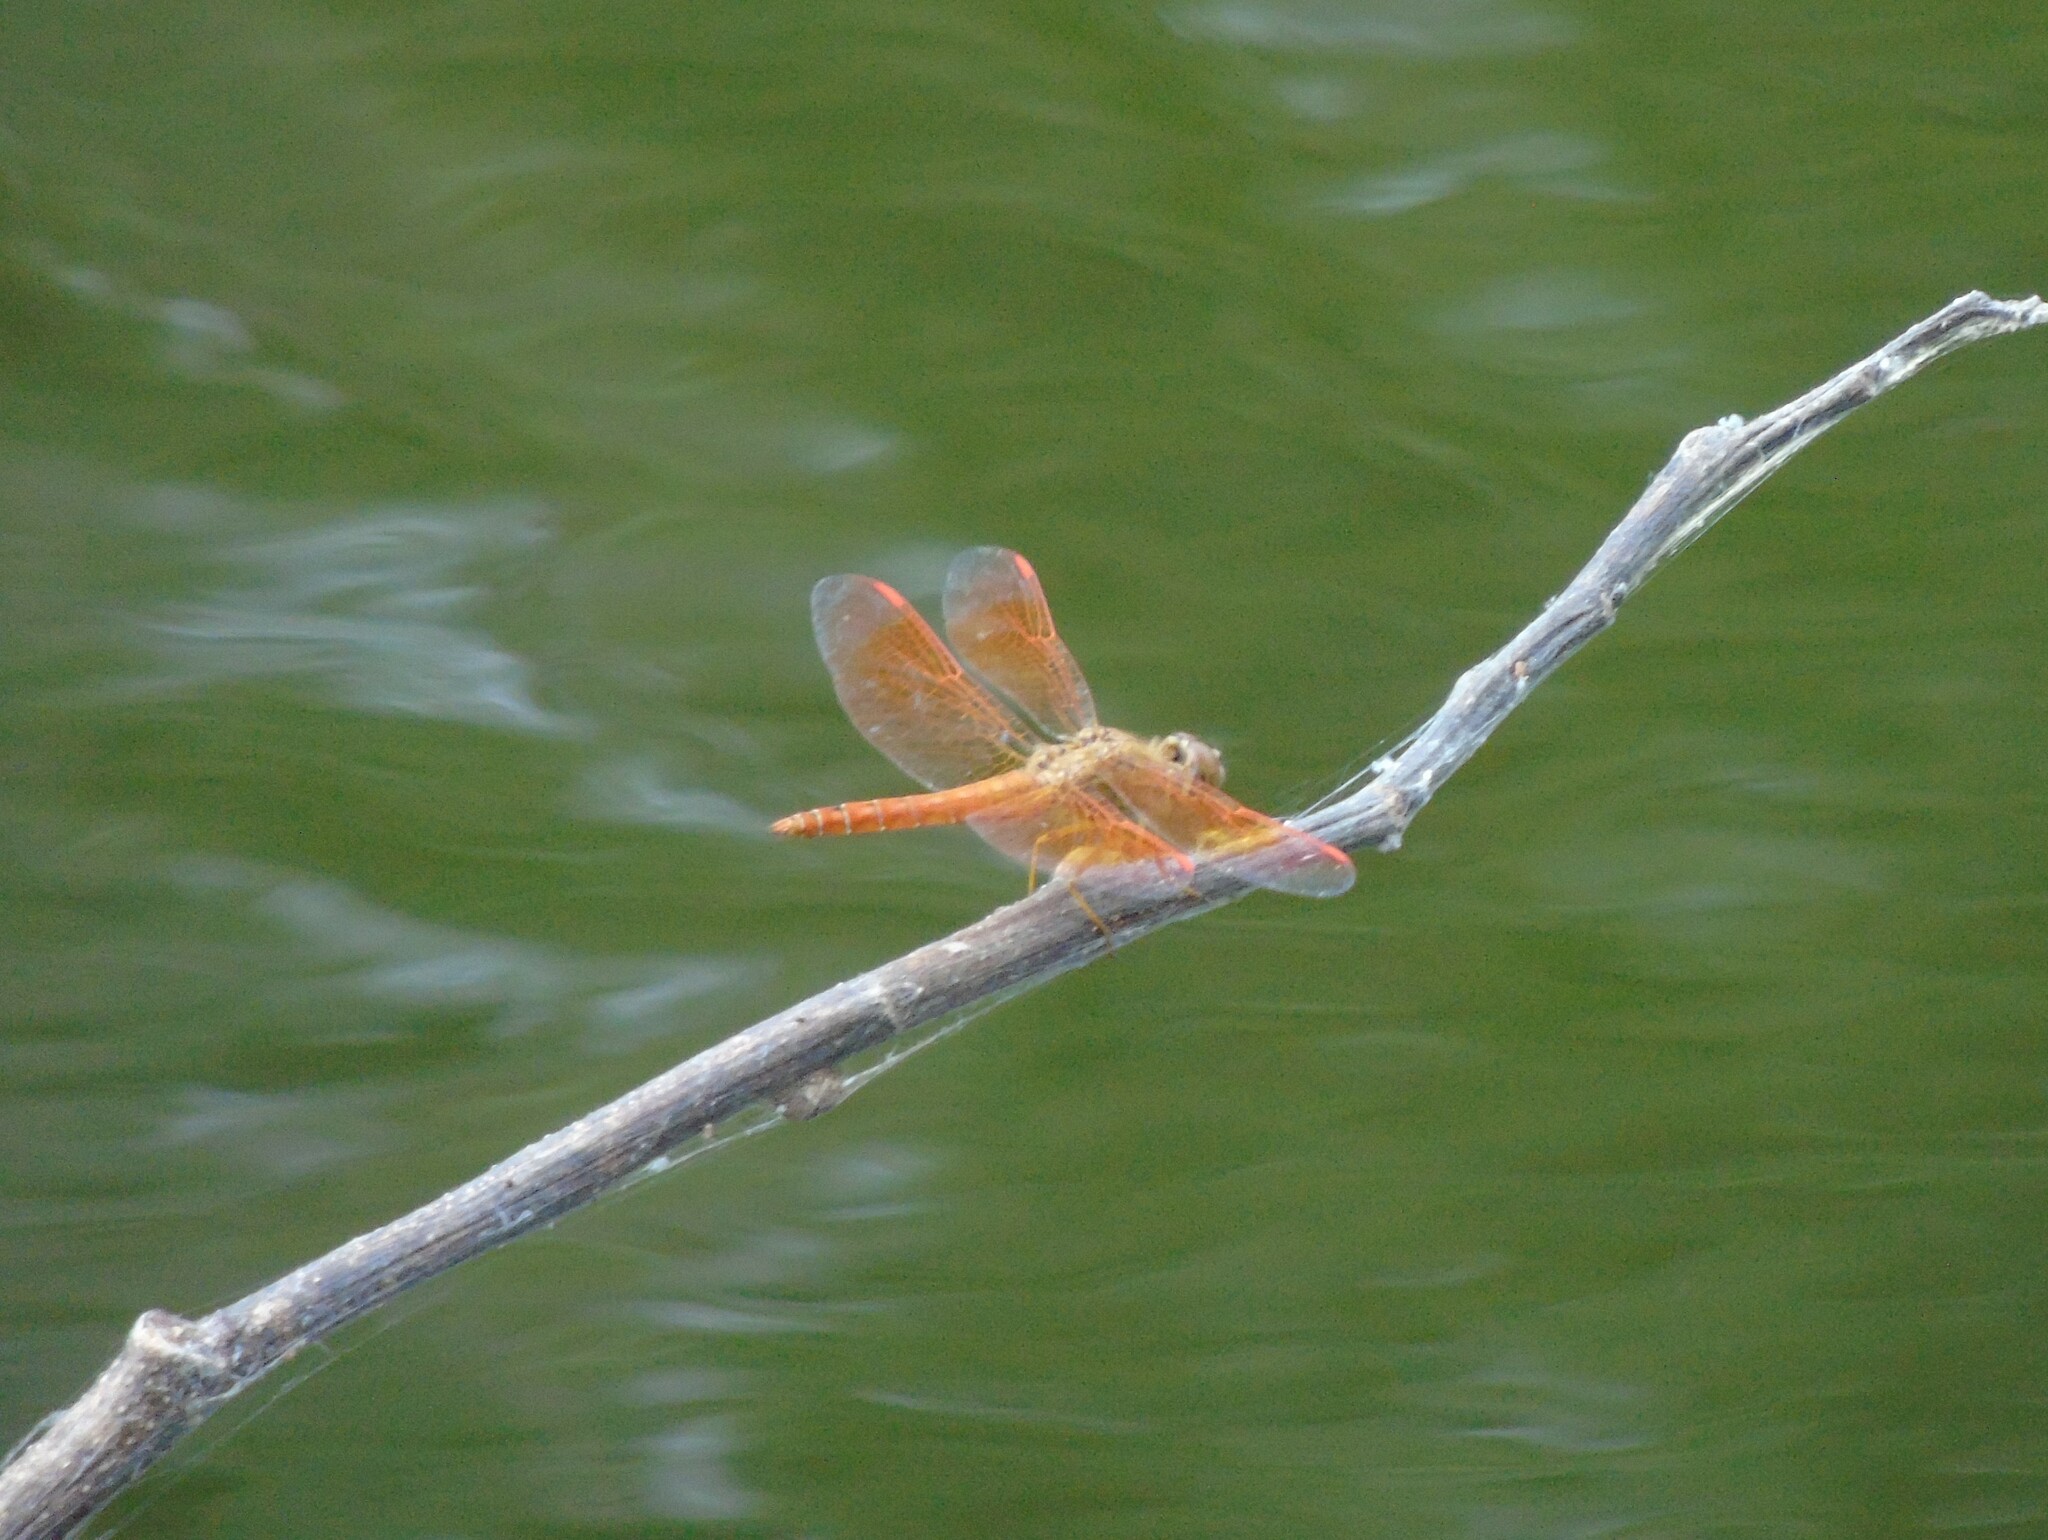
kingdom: Animalia
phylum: Arthropoda
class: Insecta
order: Odonata
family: Libellulidae
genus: Brachythemis
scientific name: Brachythemis contaminata
